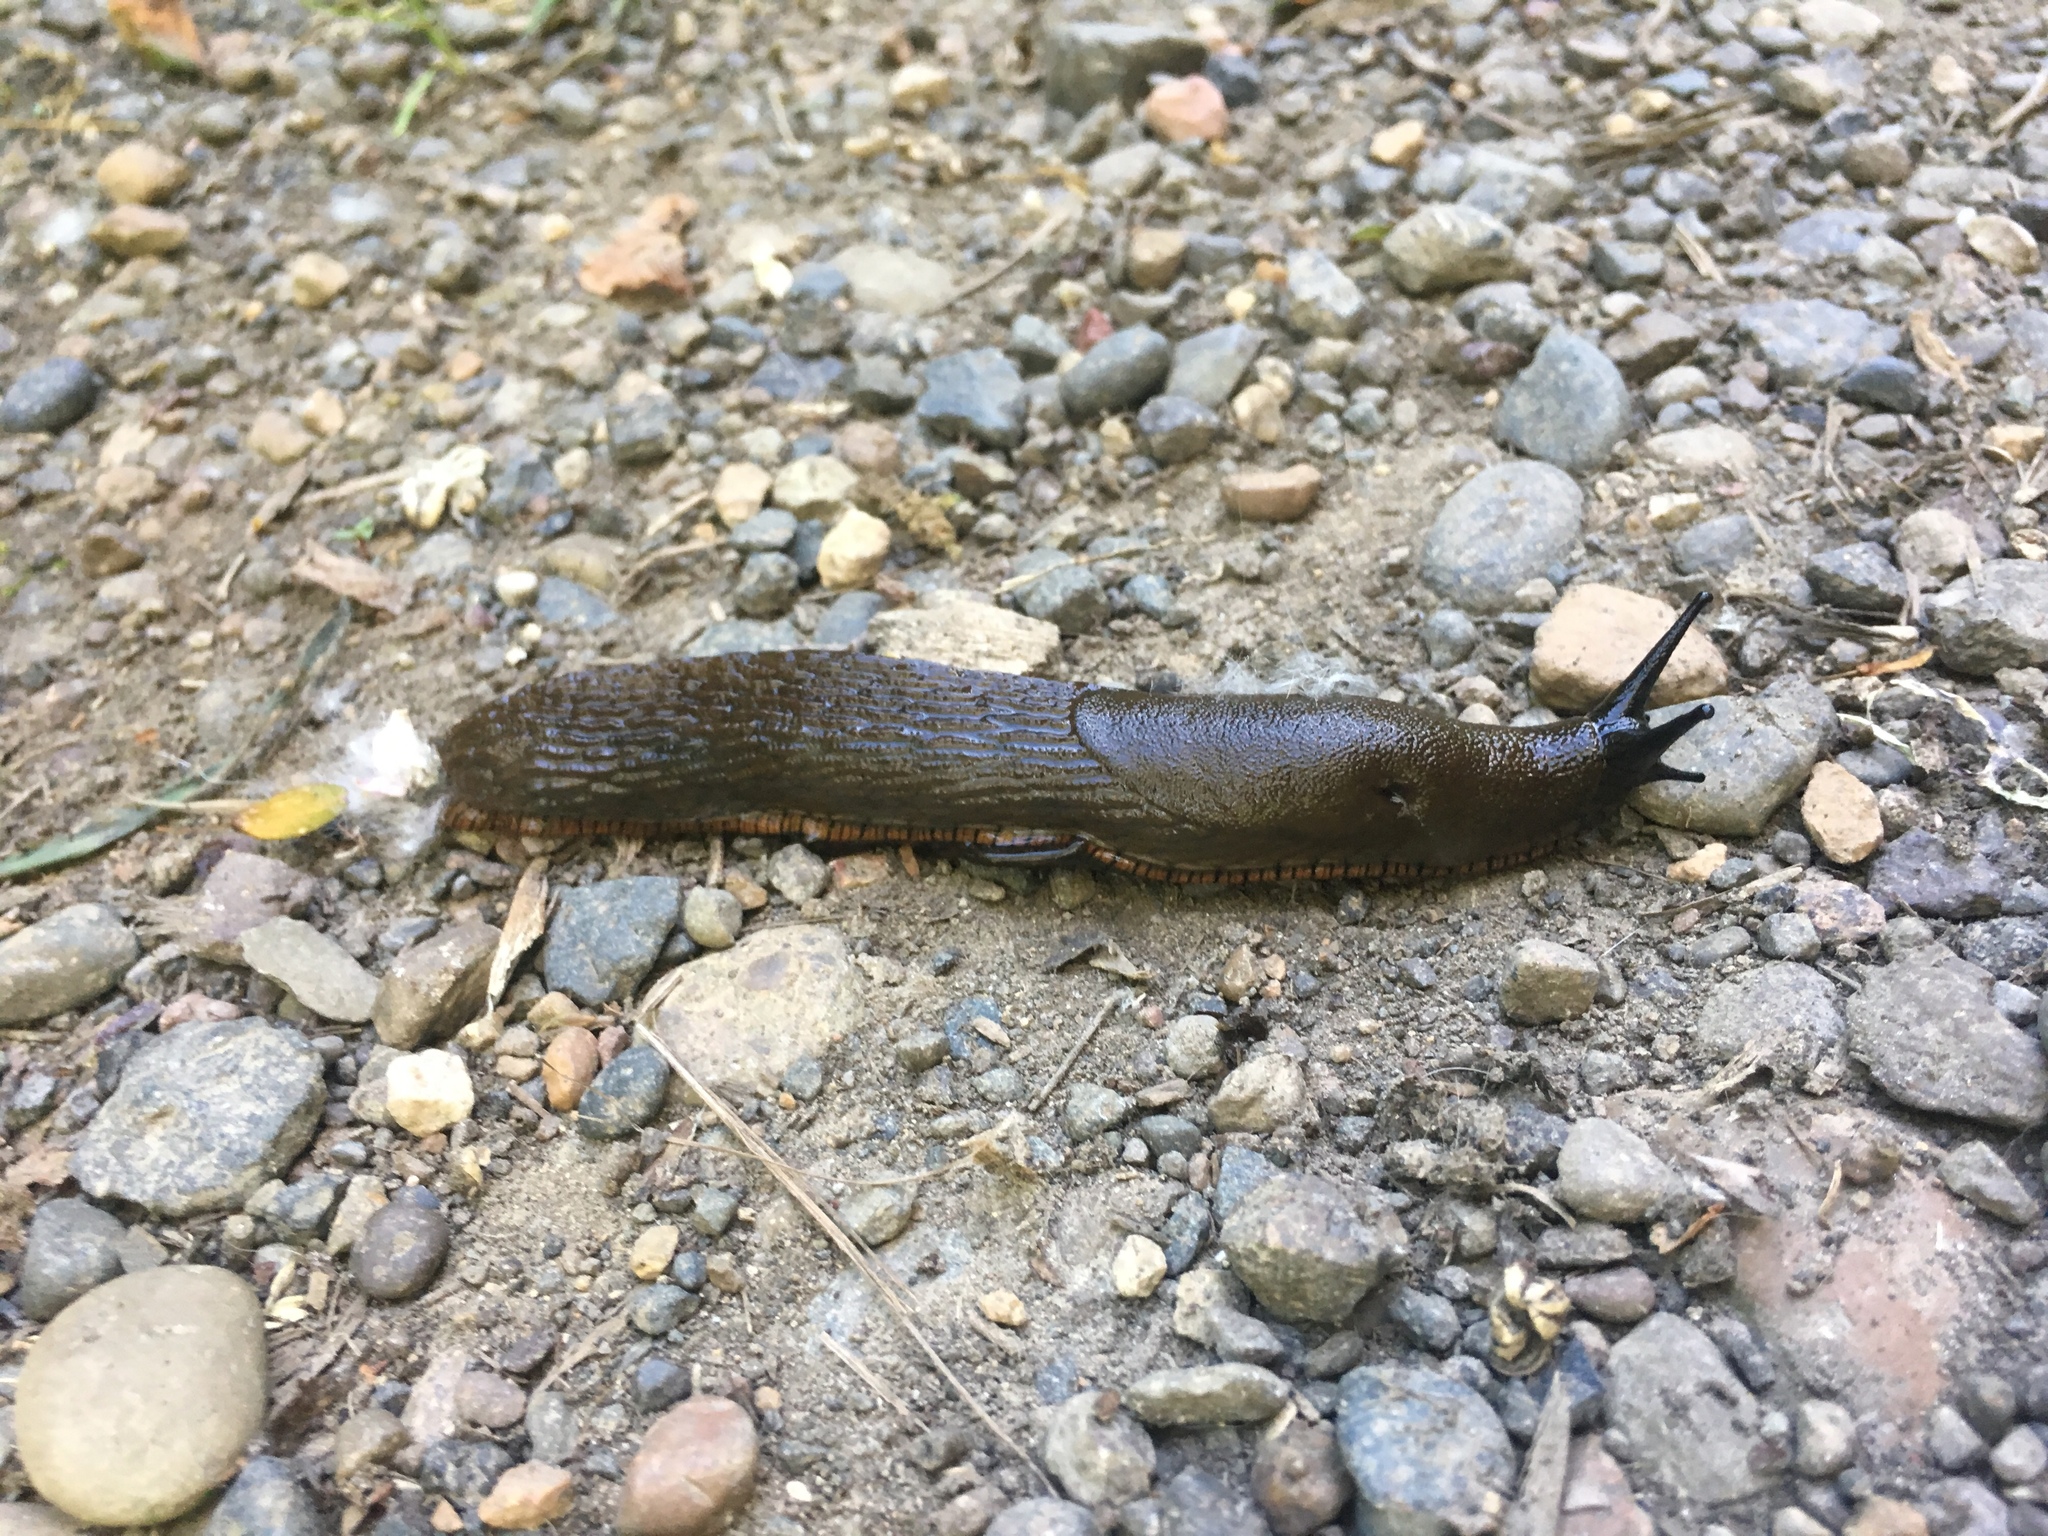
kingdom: Animalia
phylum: Mollusca
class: Gastropoda
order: Stylommatophora
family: Arionidae
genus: Arion
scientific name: Arion rufus
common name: Chocolate arion
